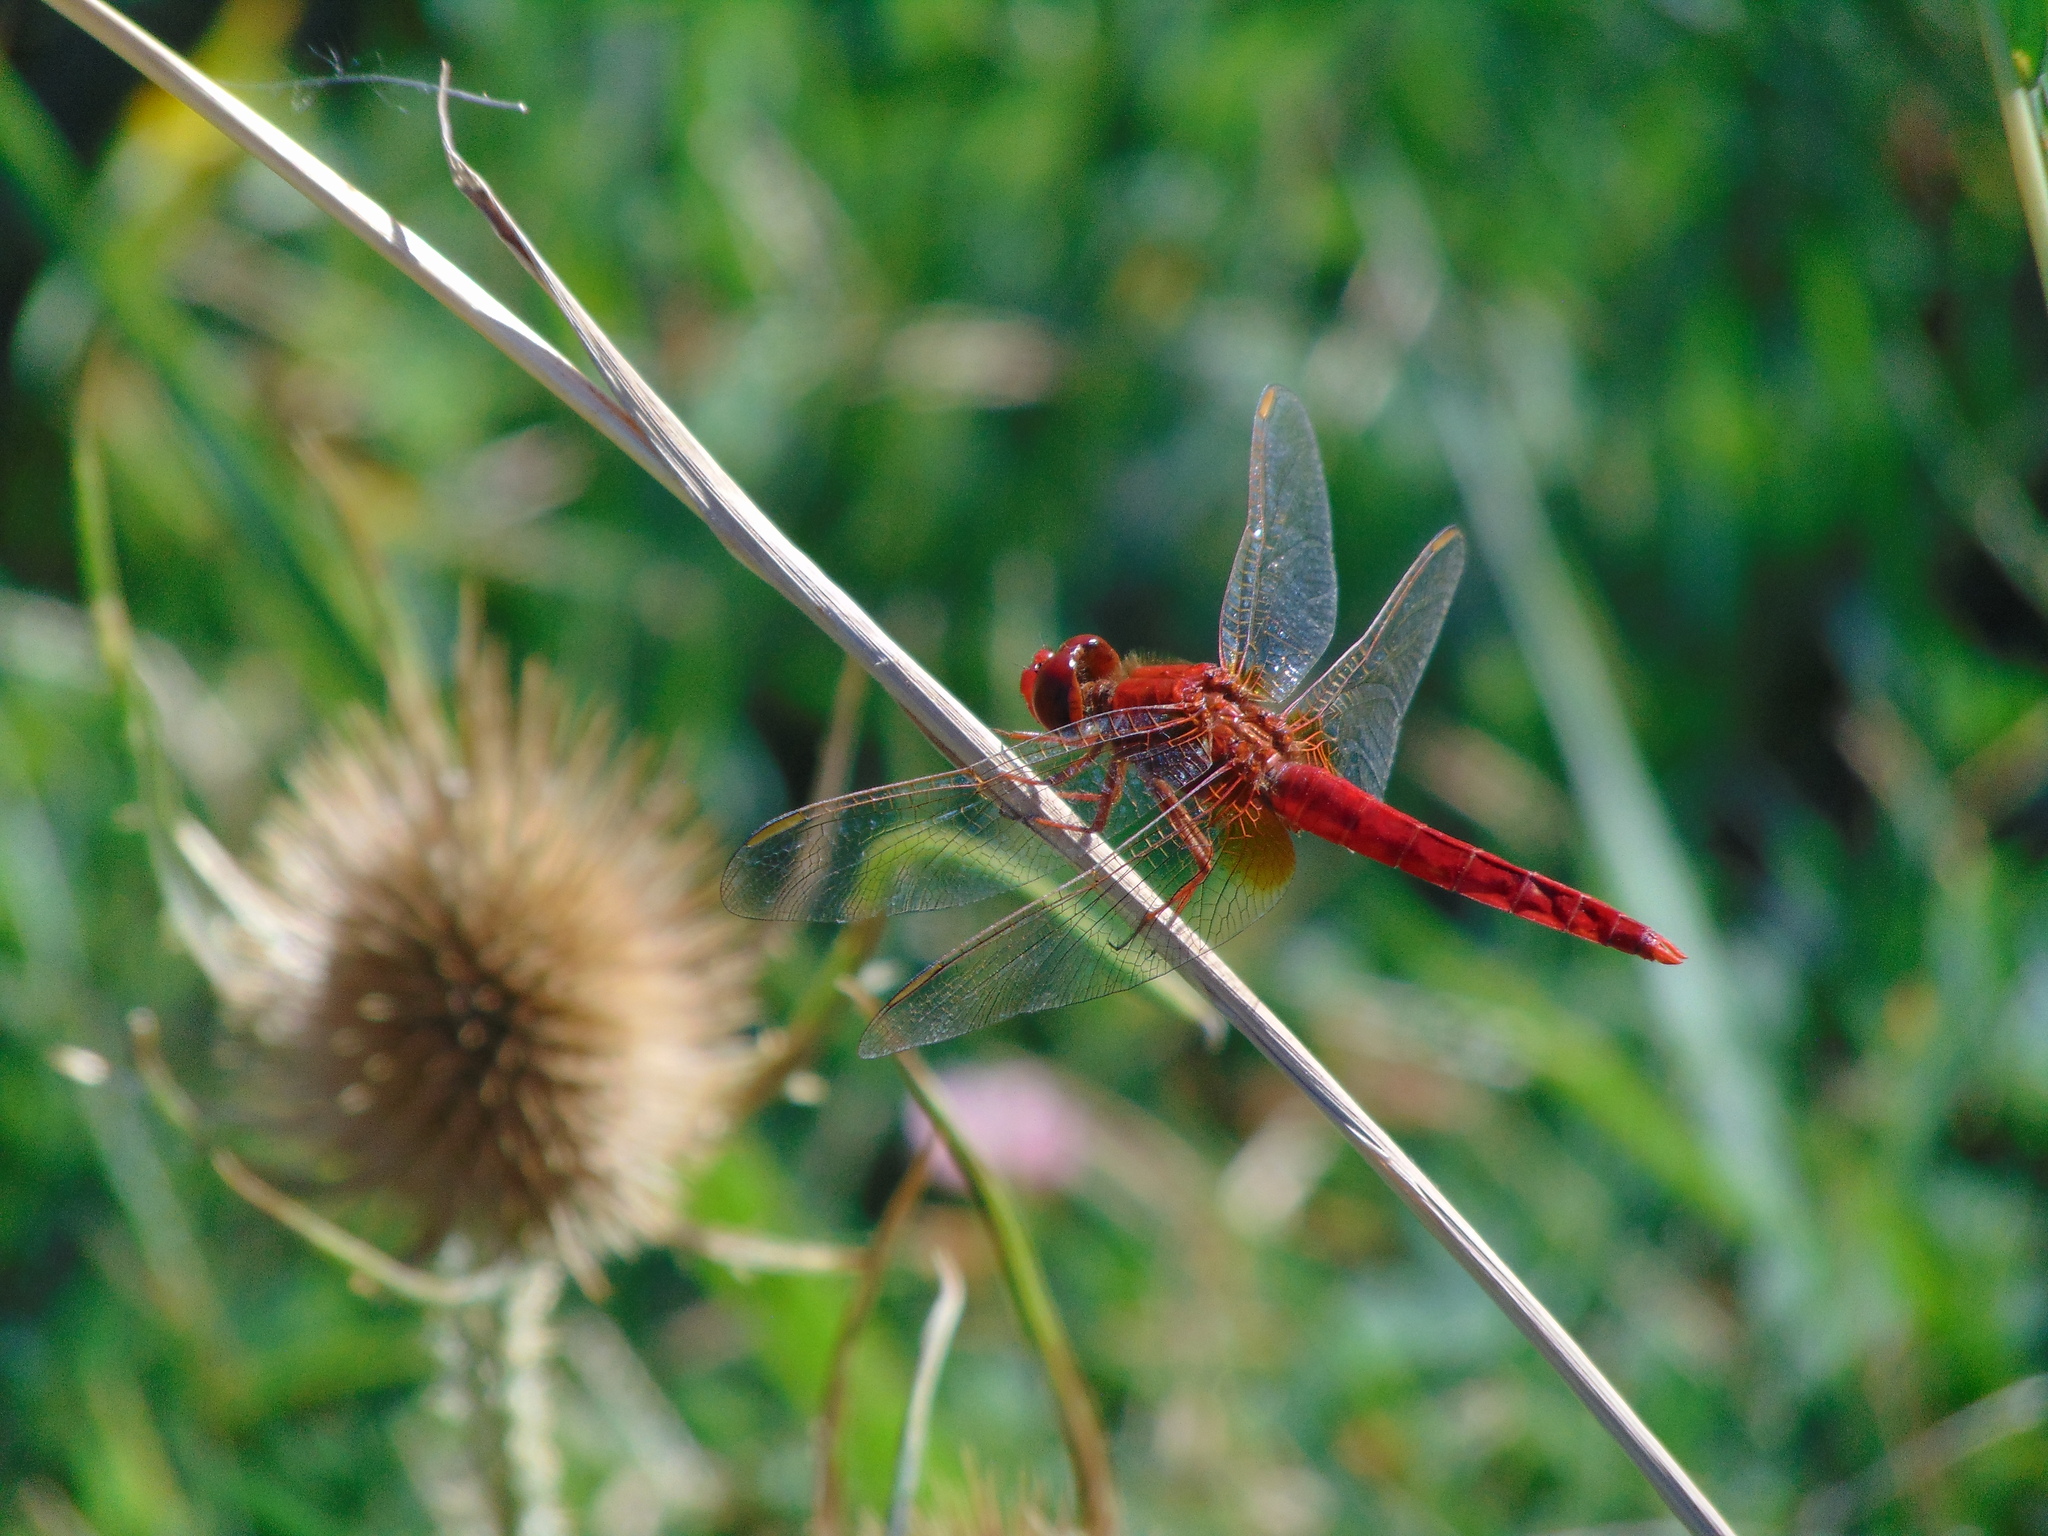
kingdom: Animalia
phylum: Arthropoda
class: Insecta
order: Odonata
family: Libellulidae
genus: Crocothemis
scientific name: Crocothemis erythraea
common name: Scarlet dragonfly
